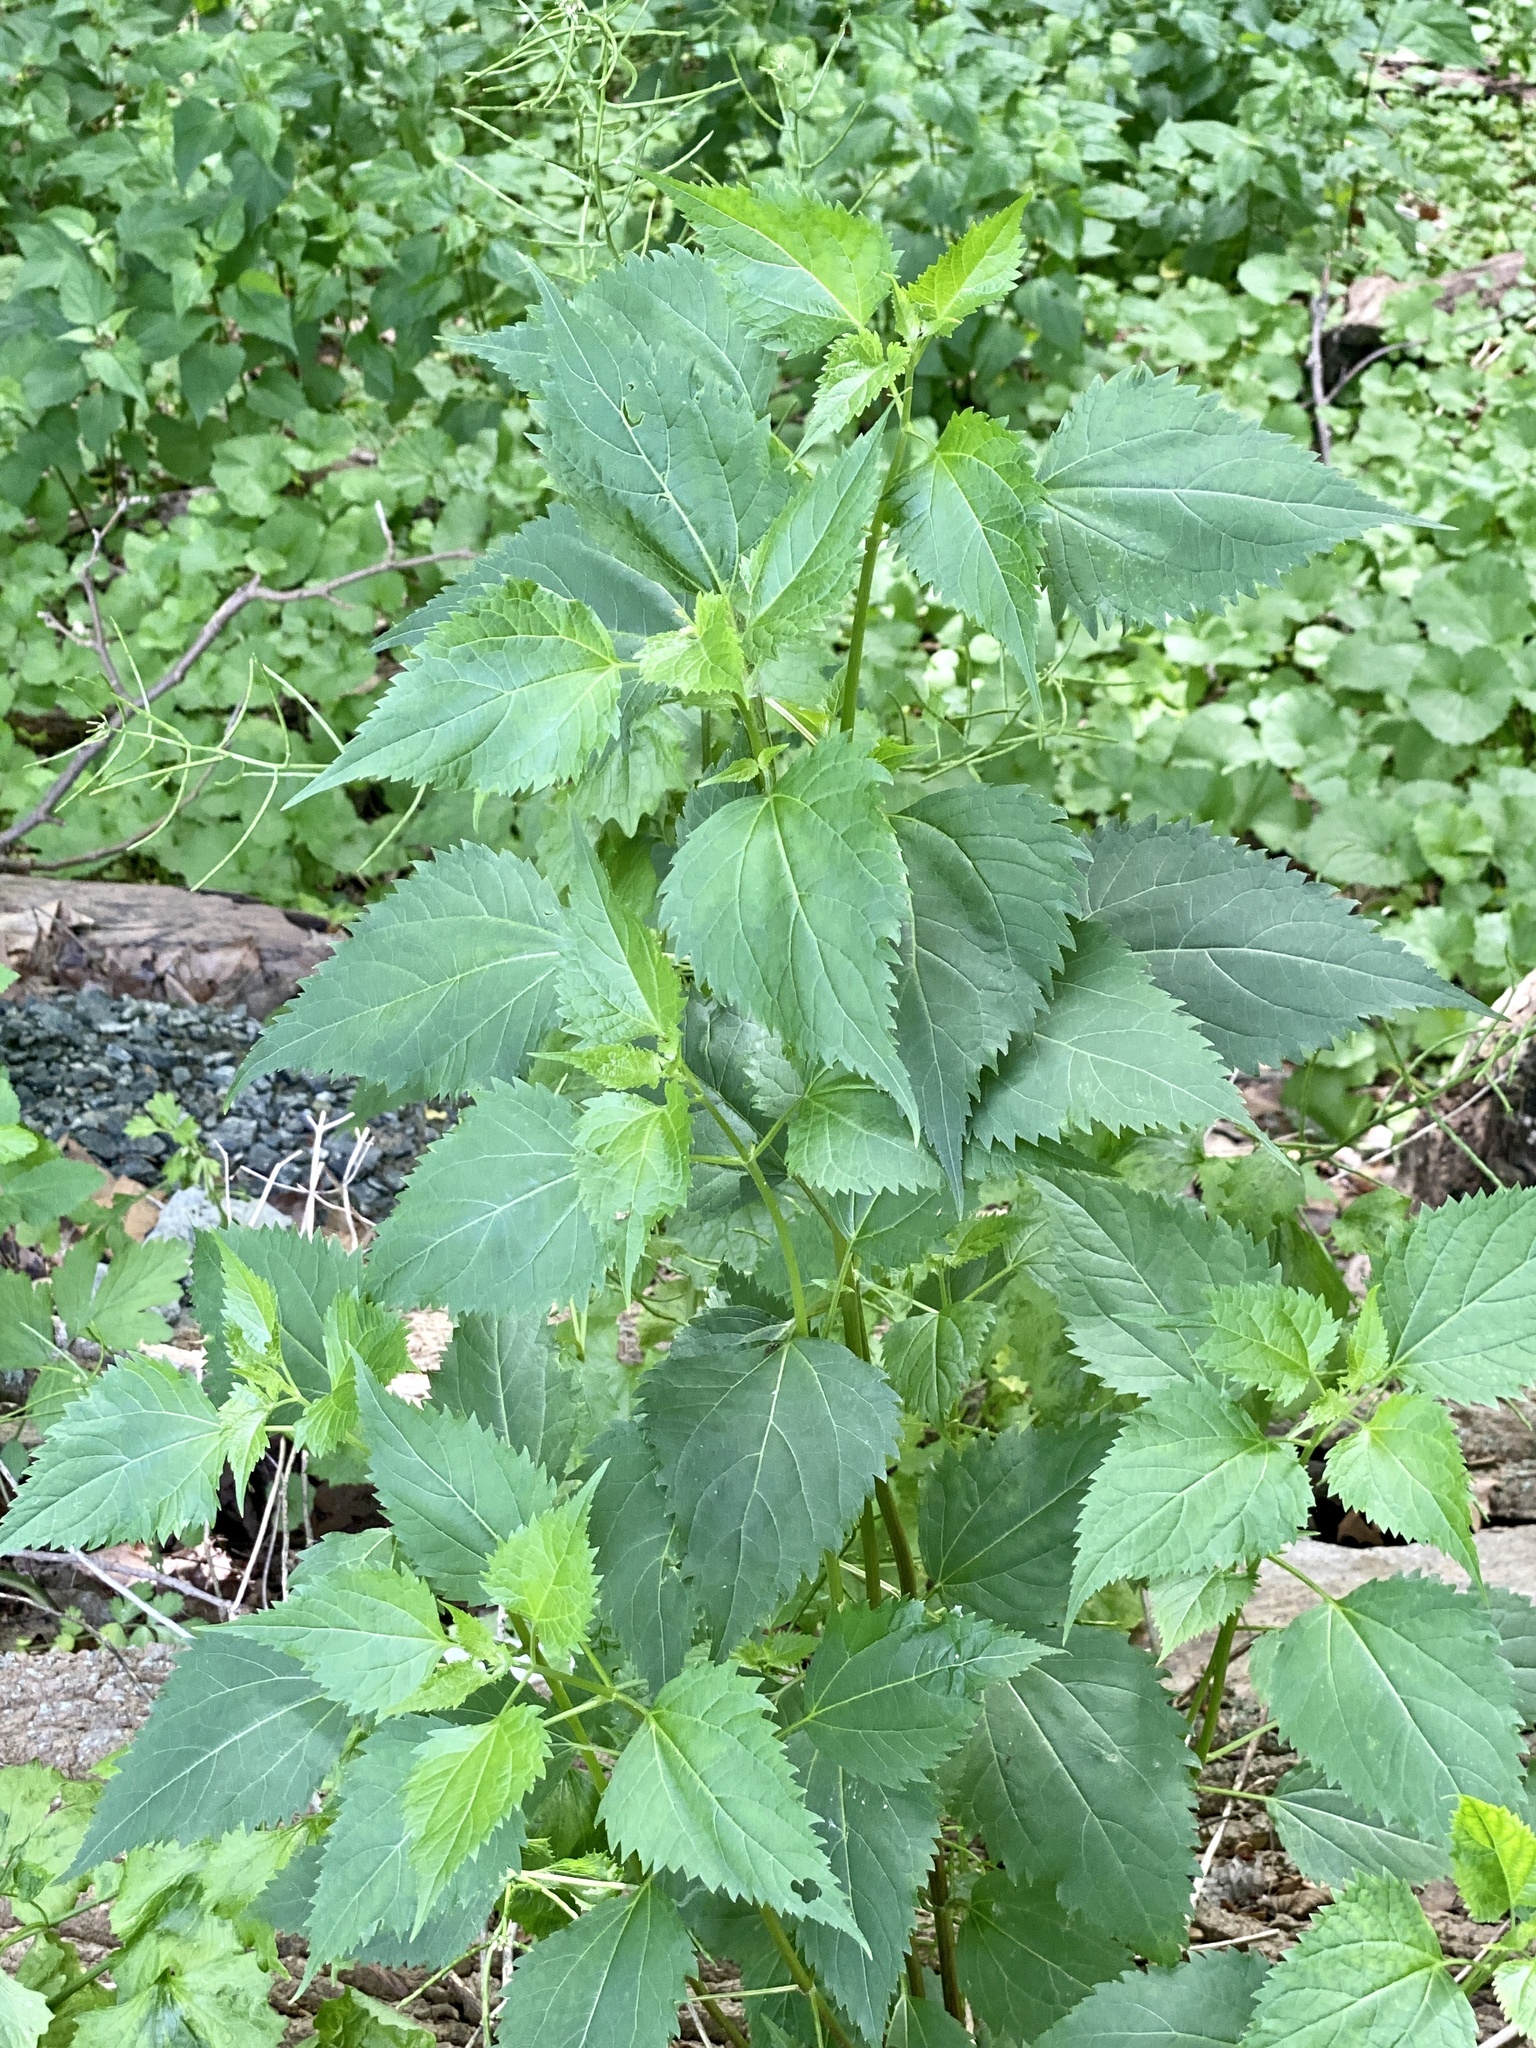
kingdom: Plantae
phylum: Tracheophyta
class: Magnoliopsida
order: Asterales
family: Asteraceae
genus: Ageratina
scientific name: Ageratina altissima
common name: White snakeroot
